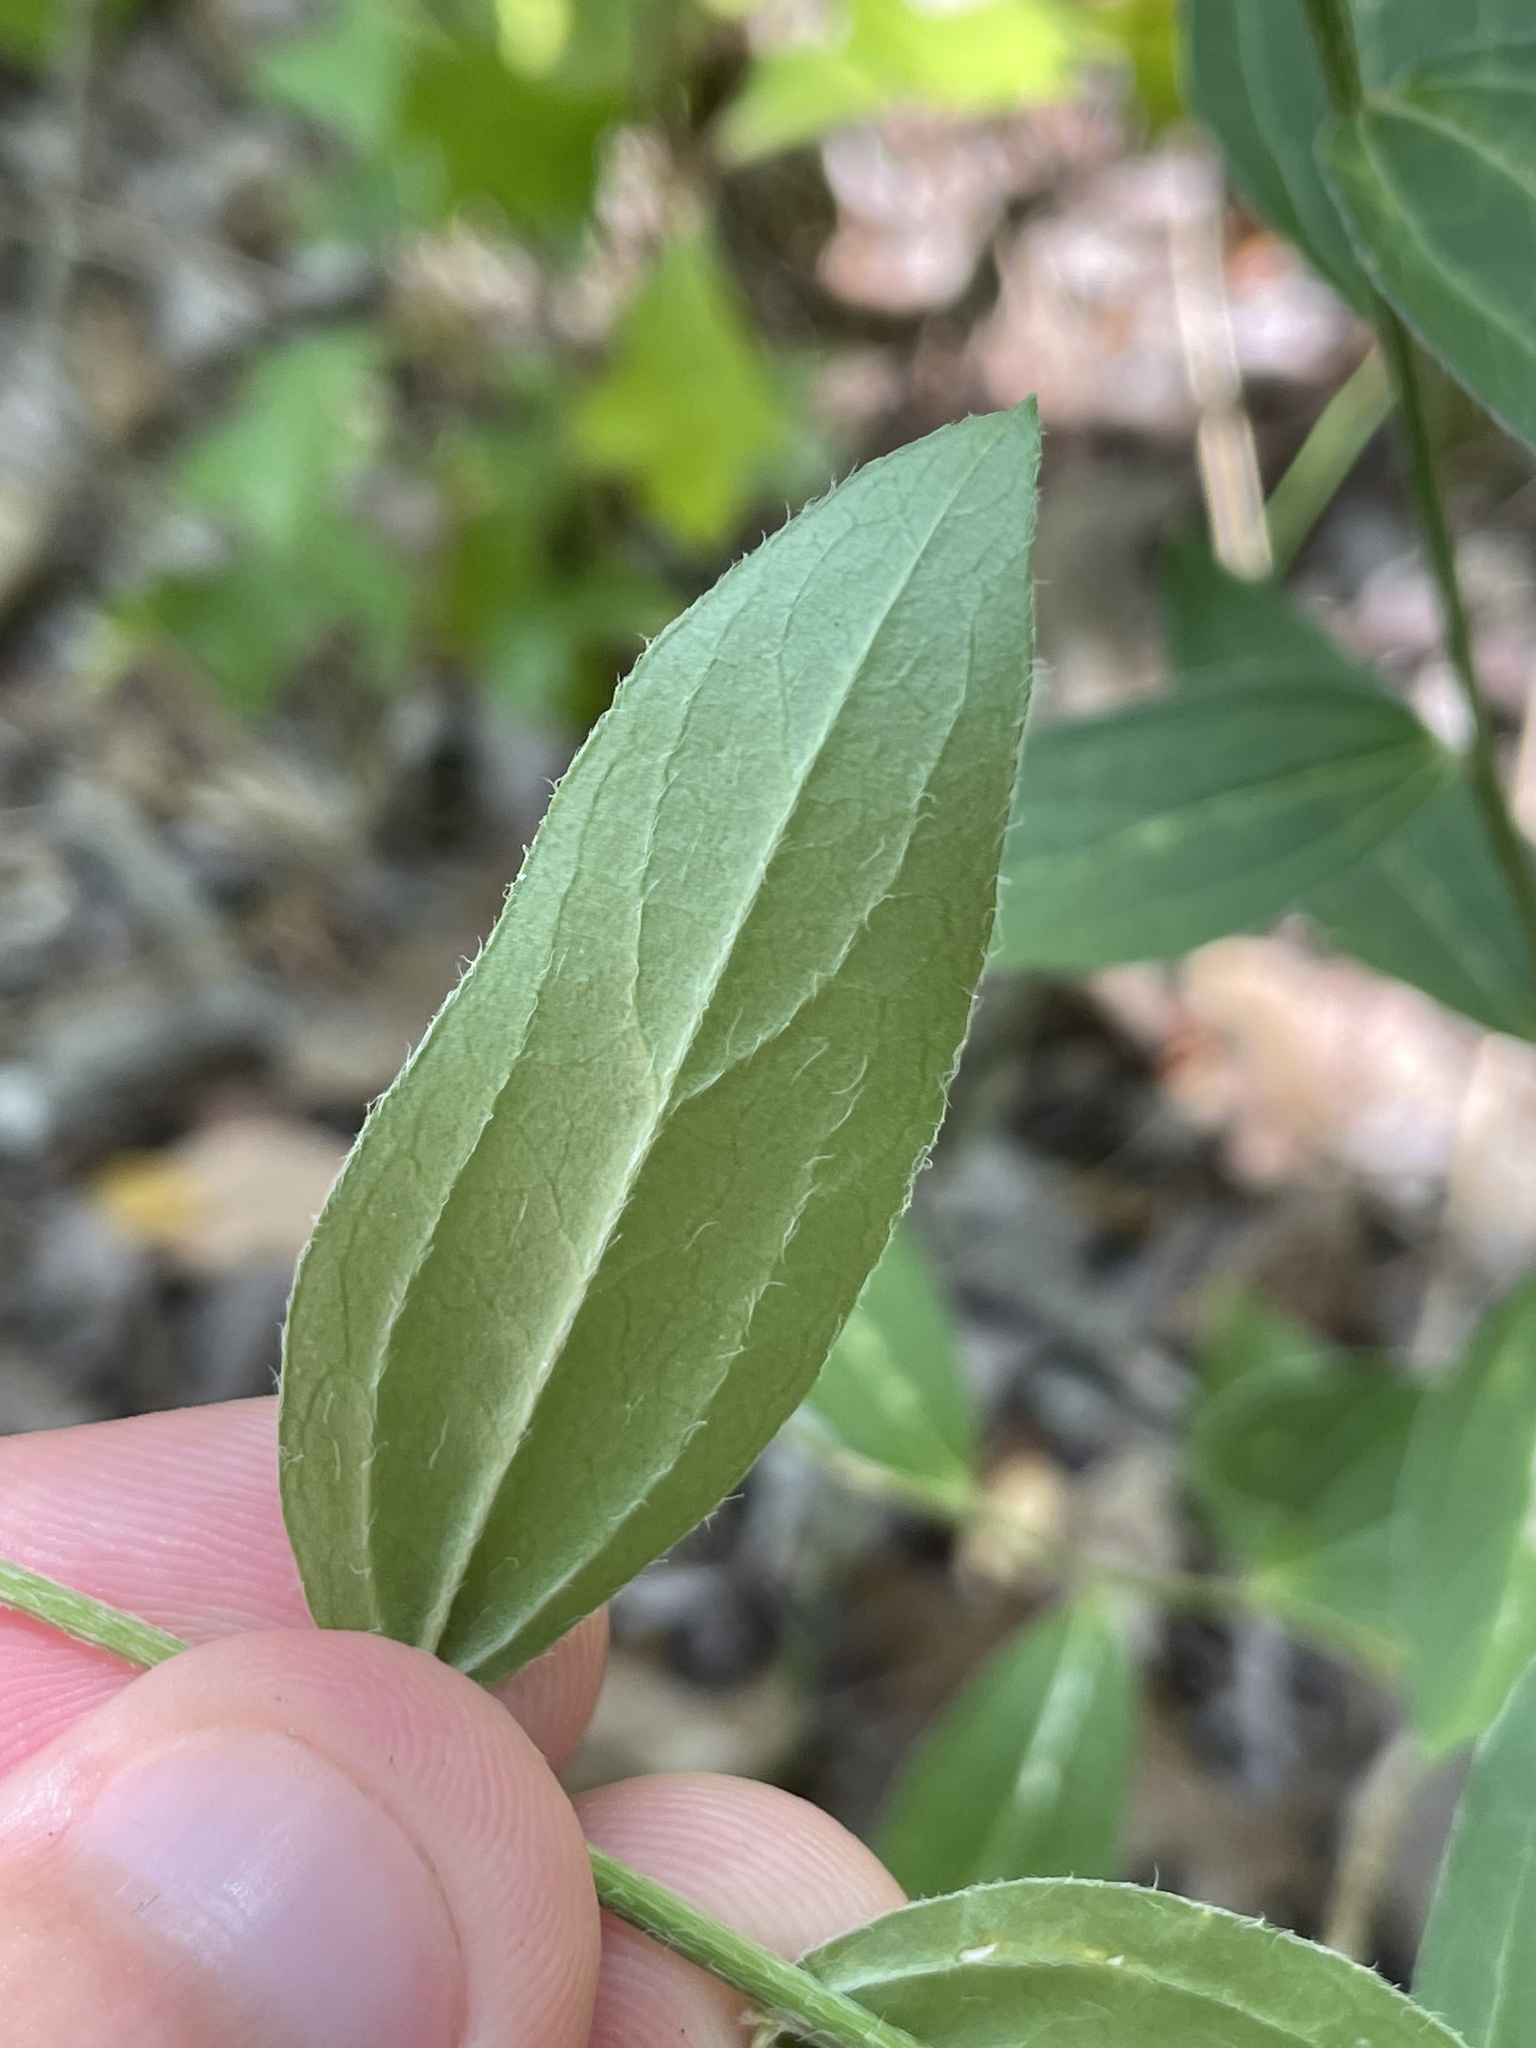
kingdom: Plantae
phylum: Tracheophyta
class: Magnoliopsida
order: Malpighiales
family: Euphorbiaceae
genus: Ditaxis
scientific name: Ditaxis humilis
